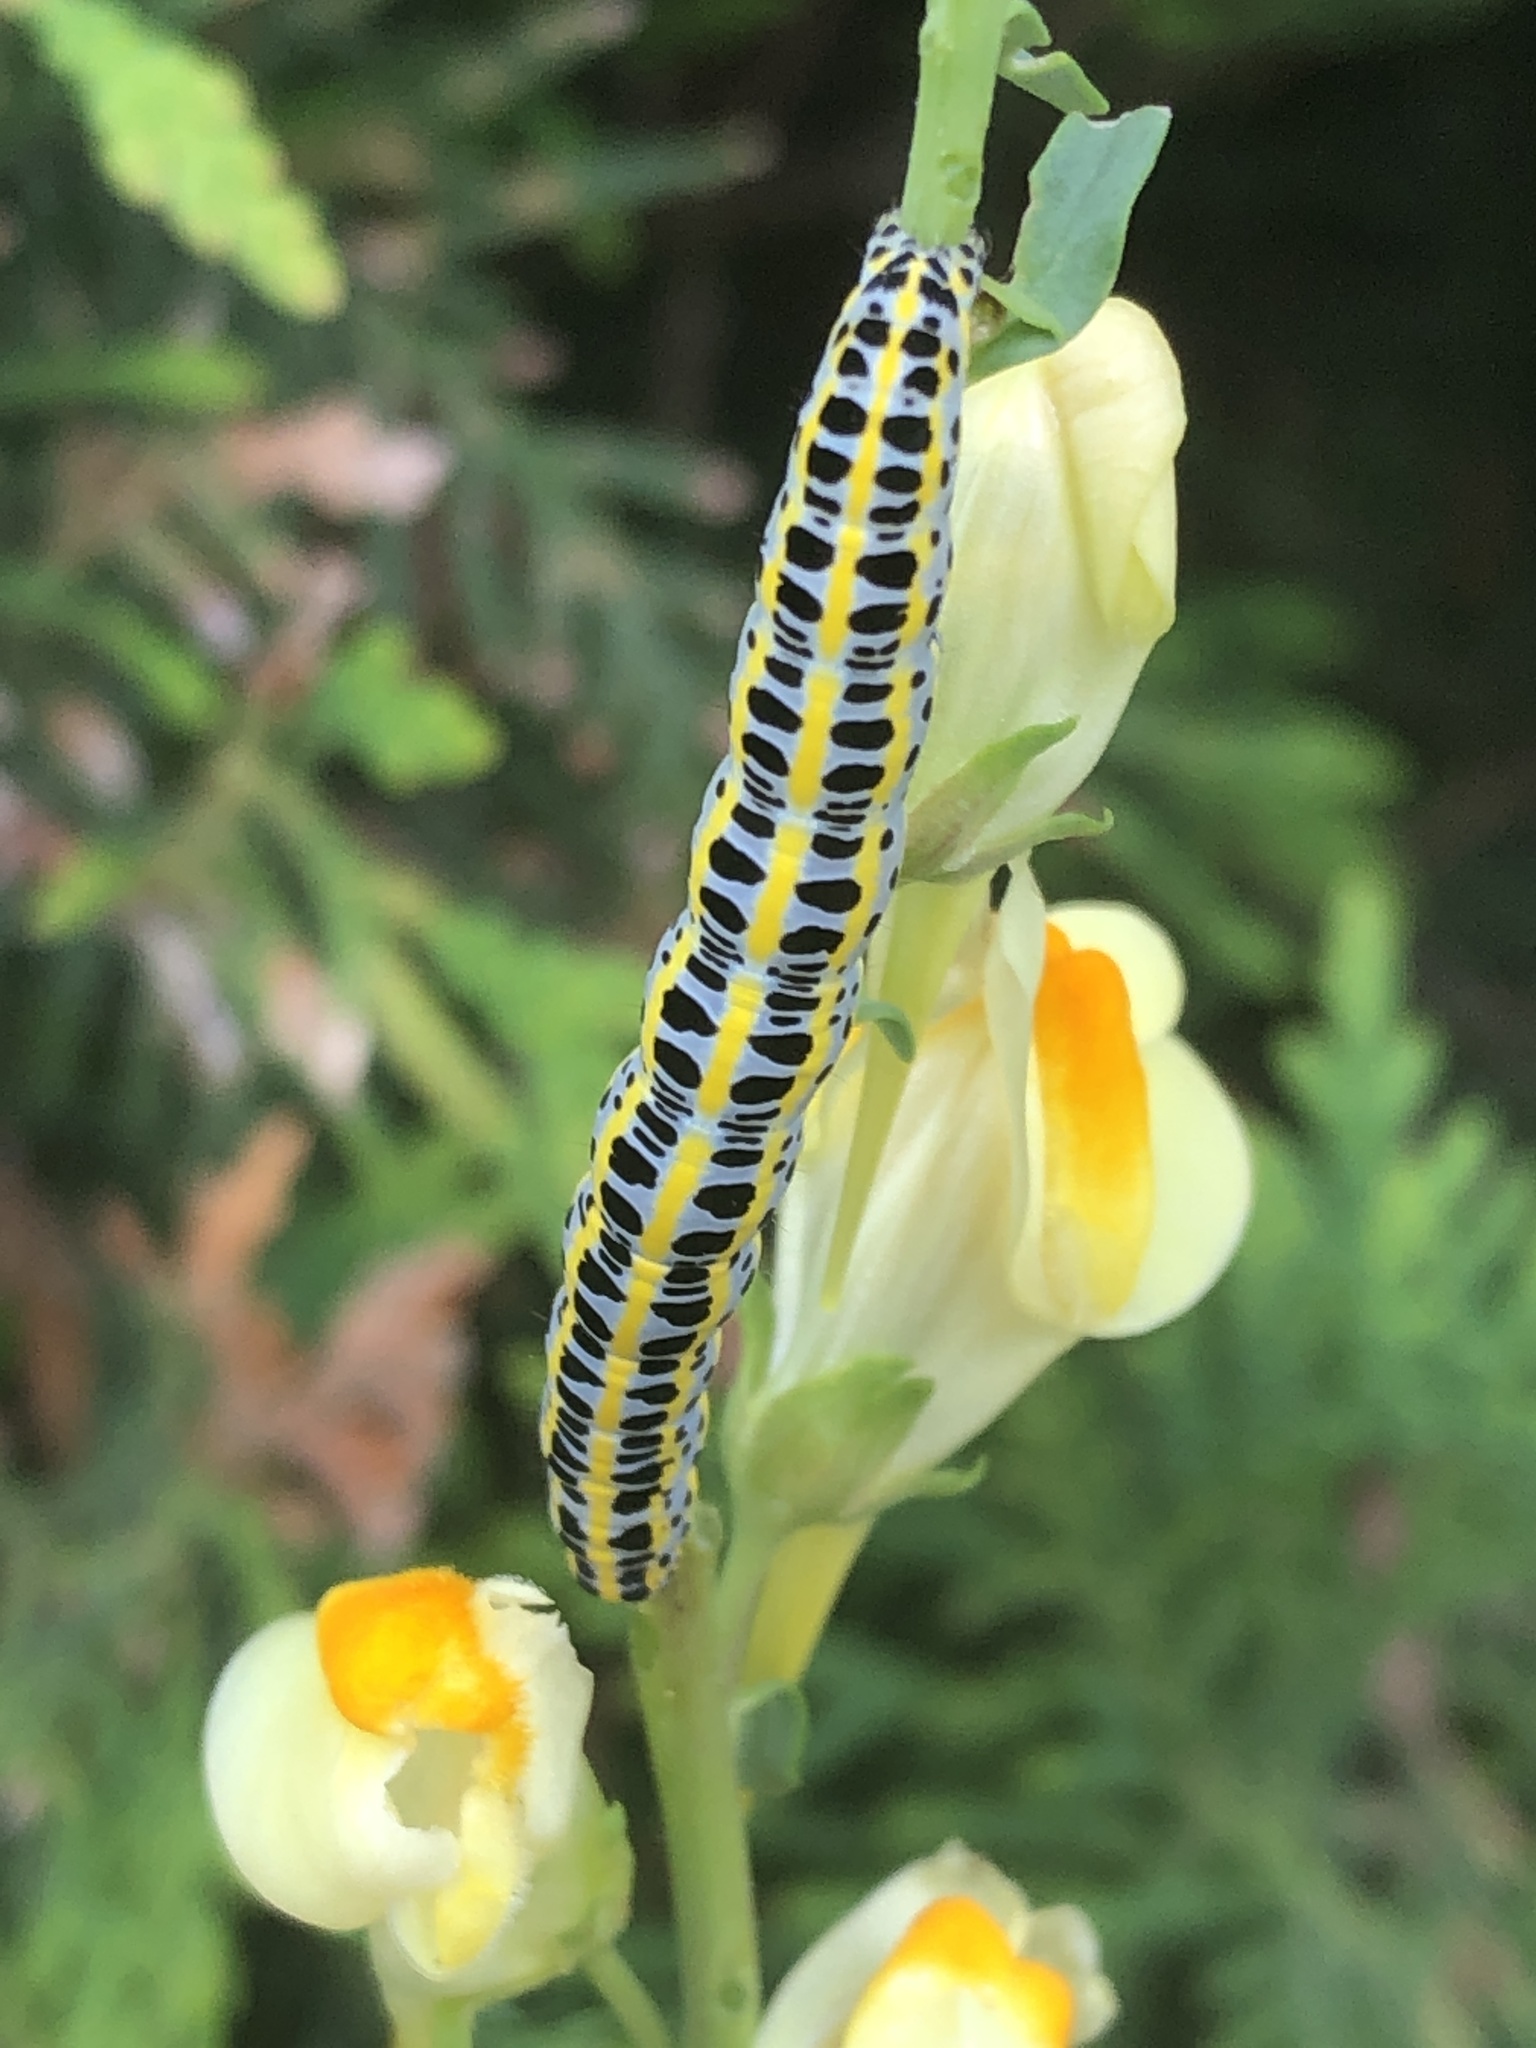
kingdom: Animalia
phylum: Arthropoda
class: Insecta
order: Lepidoptera
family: Noctuidae
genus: Calophasia
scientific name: Calophasia lunula
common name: Toadflax brocade
